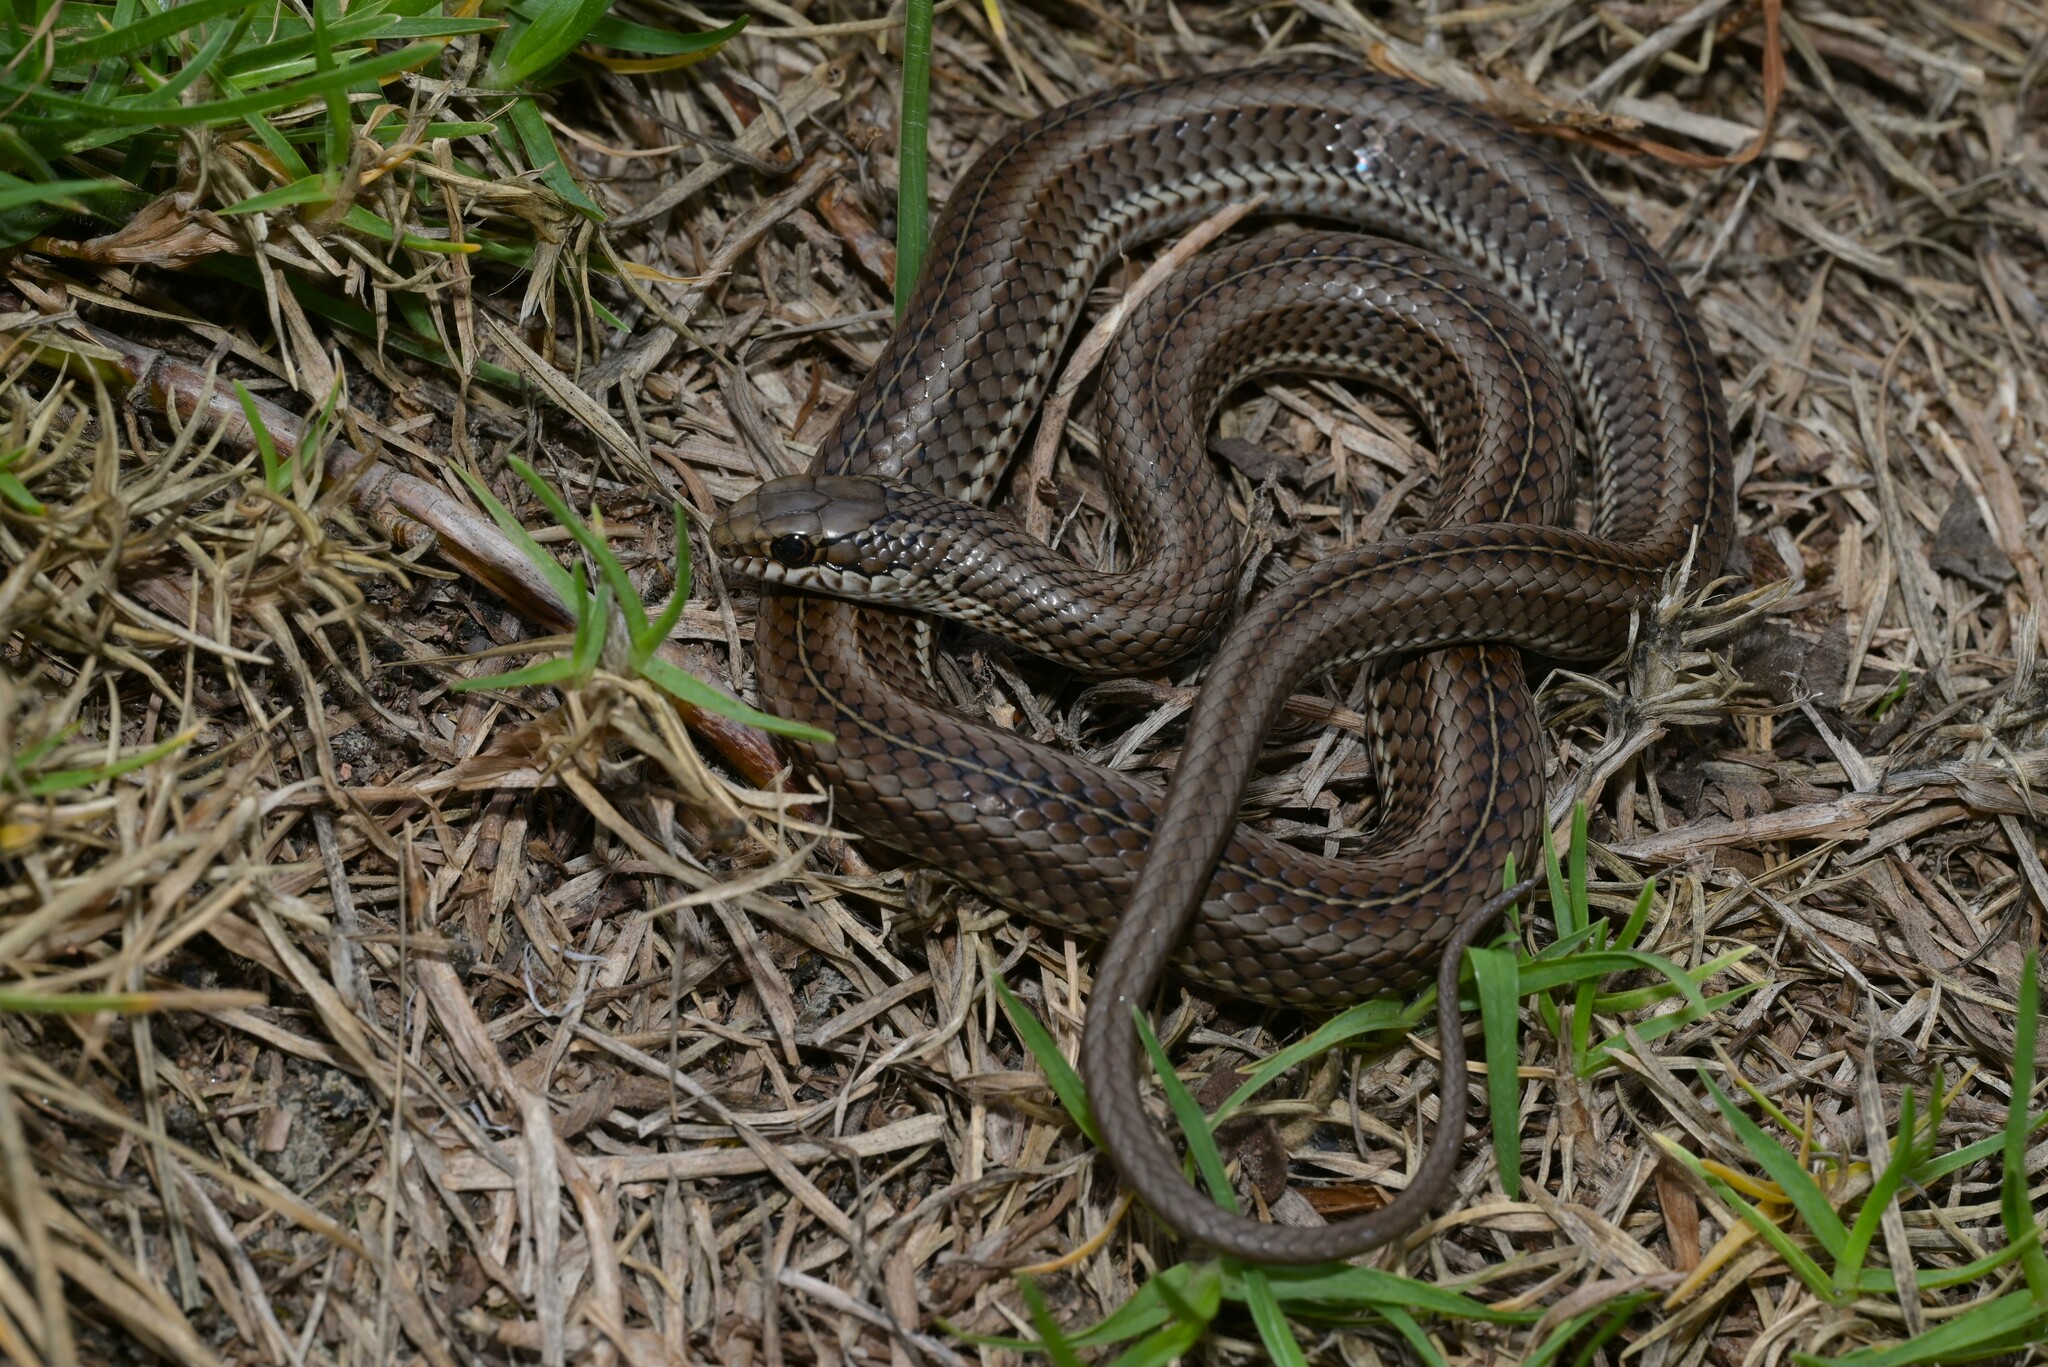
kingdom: Animalia
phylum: Chordata
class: Squamata
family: Psammophiidae
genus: Psammophylax
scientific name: Psammophylax variabilis
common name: Grey-bellied grass snake
